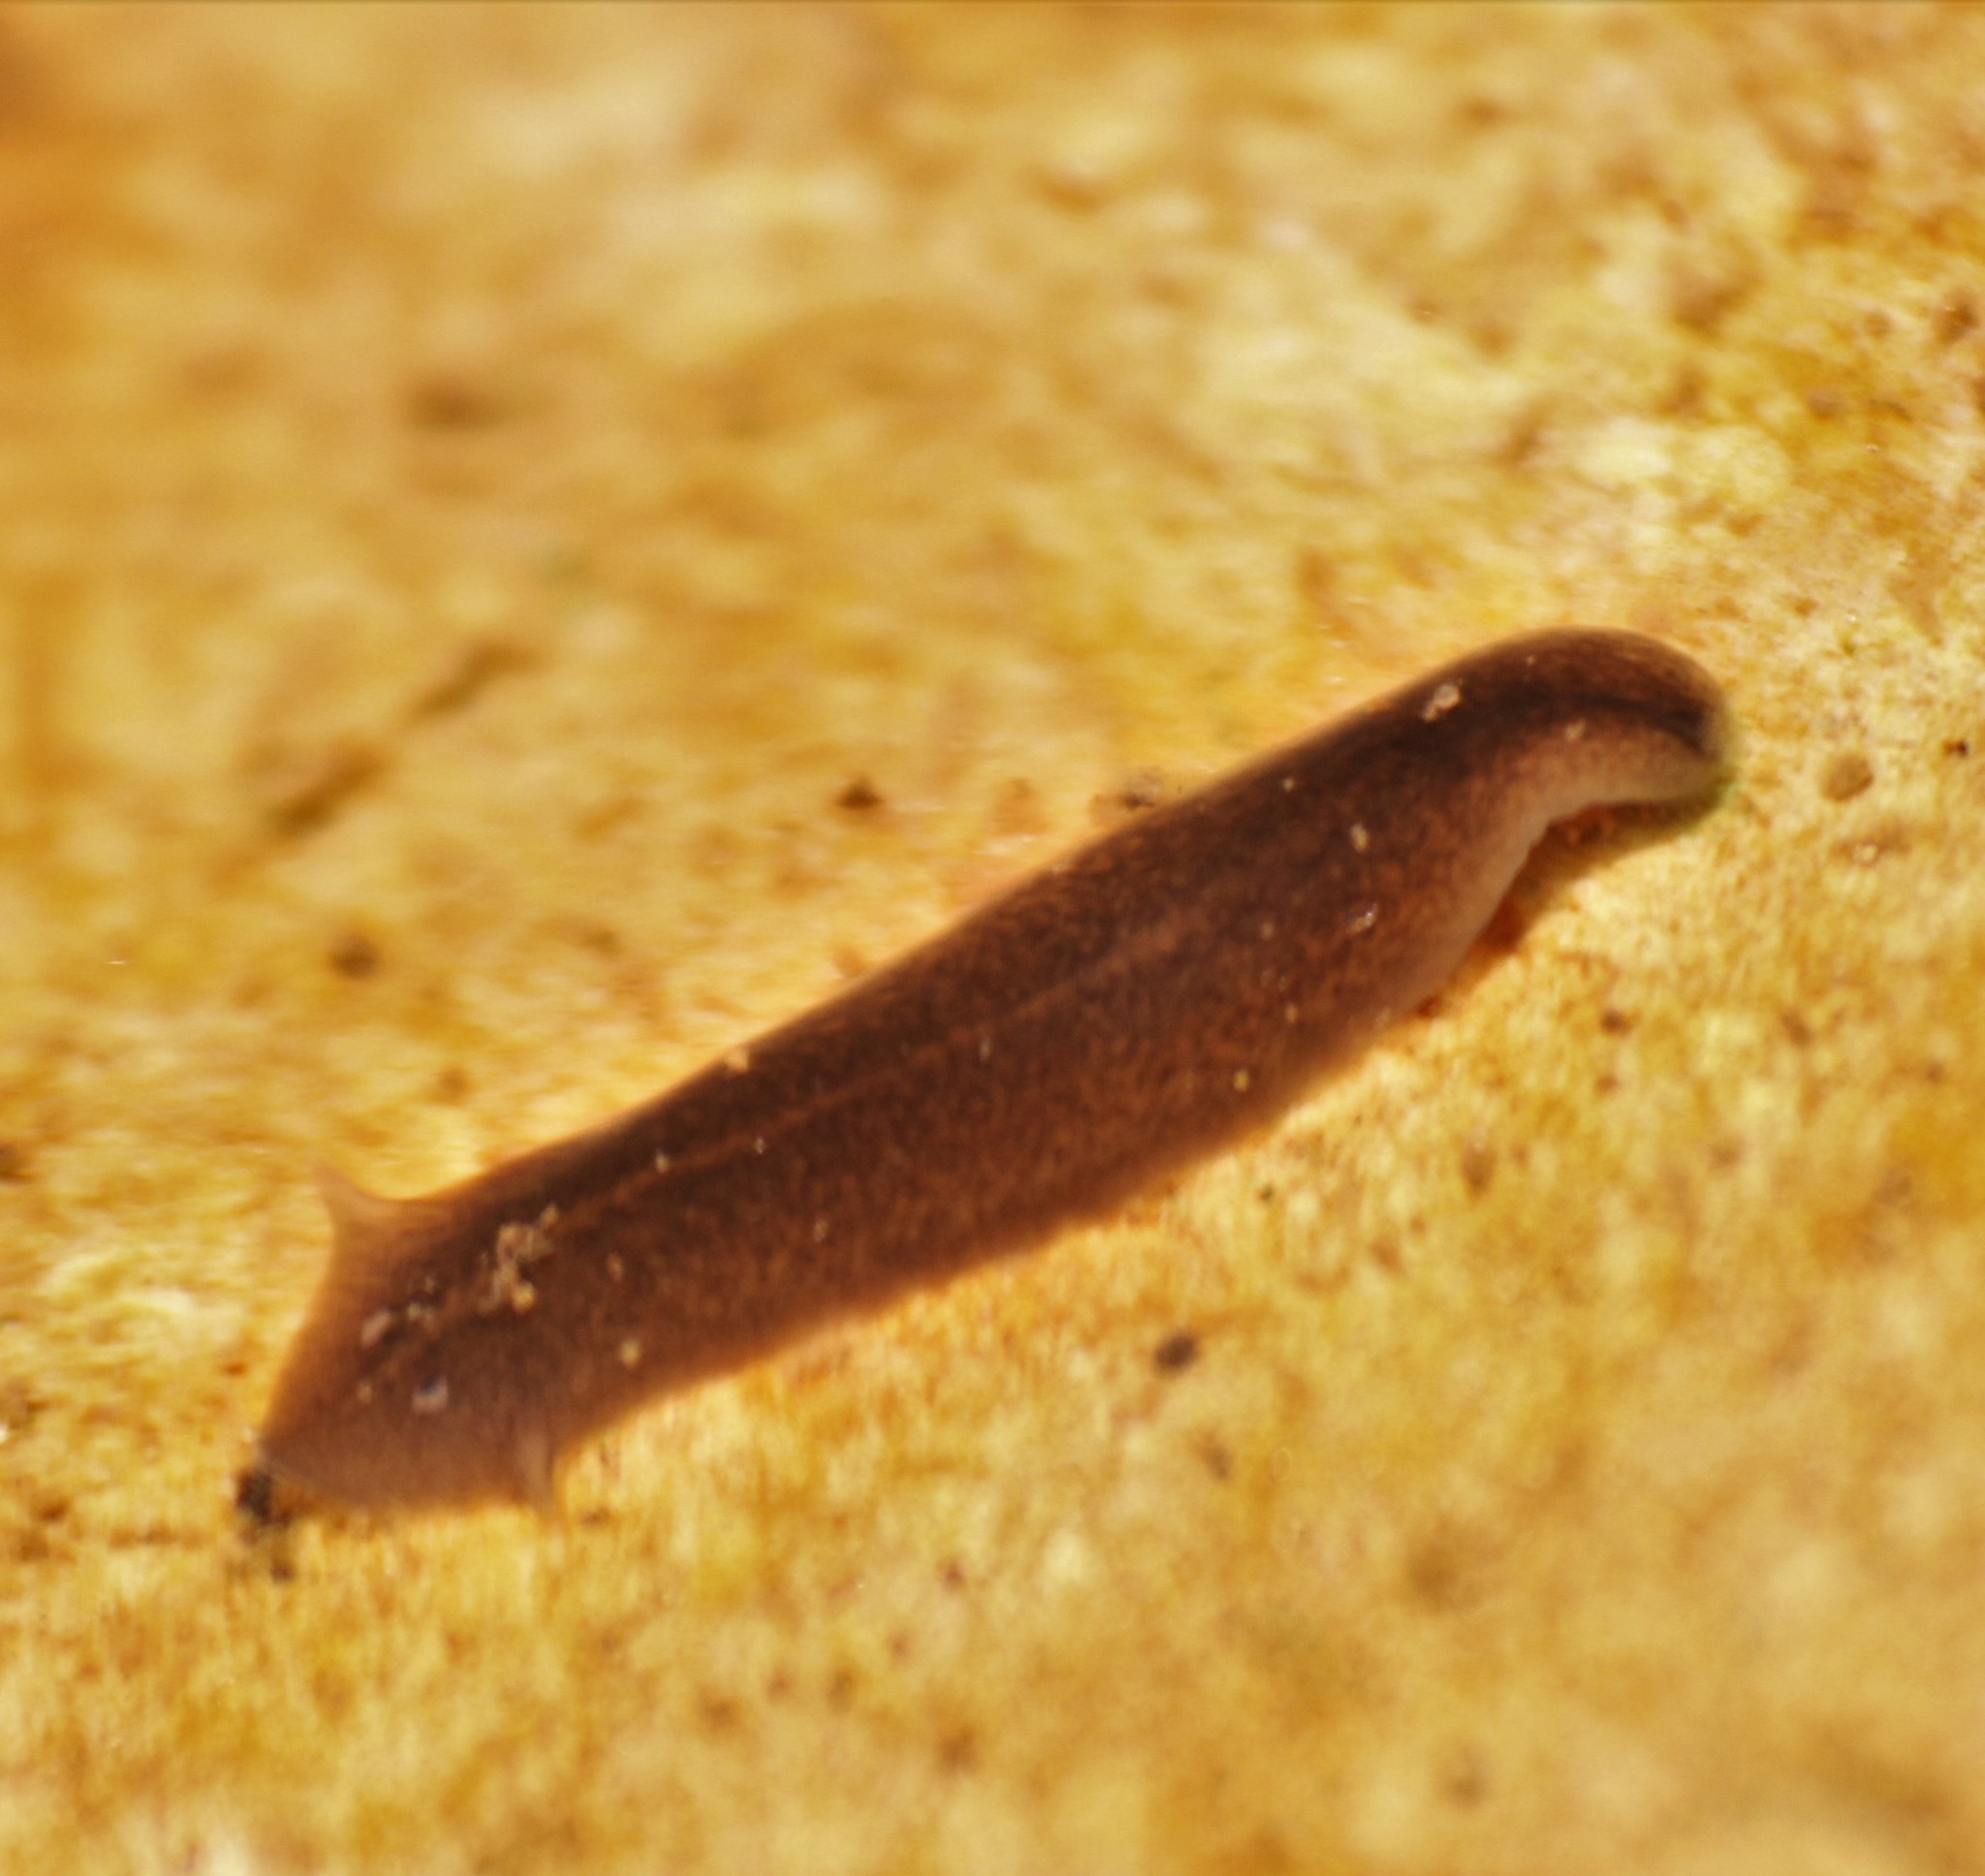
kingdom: Animalia
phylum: Platyhelminthes
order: Tricladida
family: Dugesiidae
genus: Girardia
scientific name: Girardia
